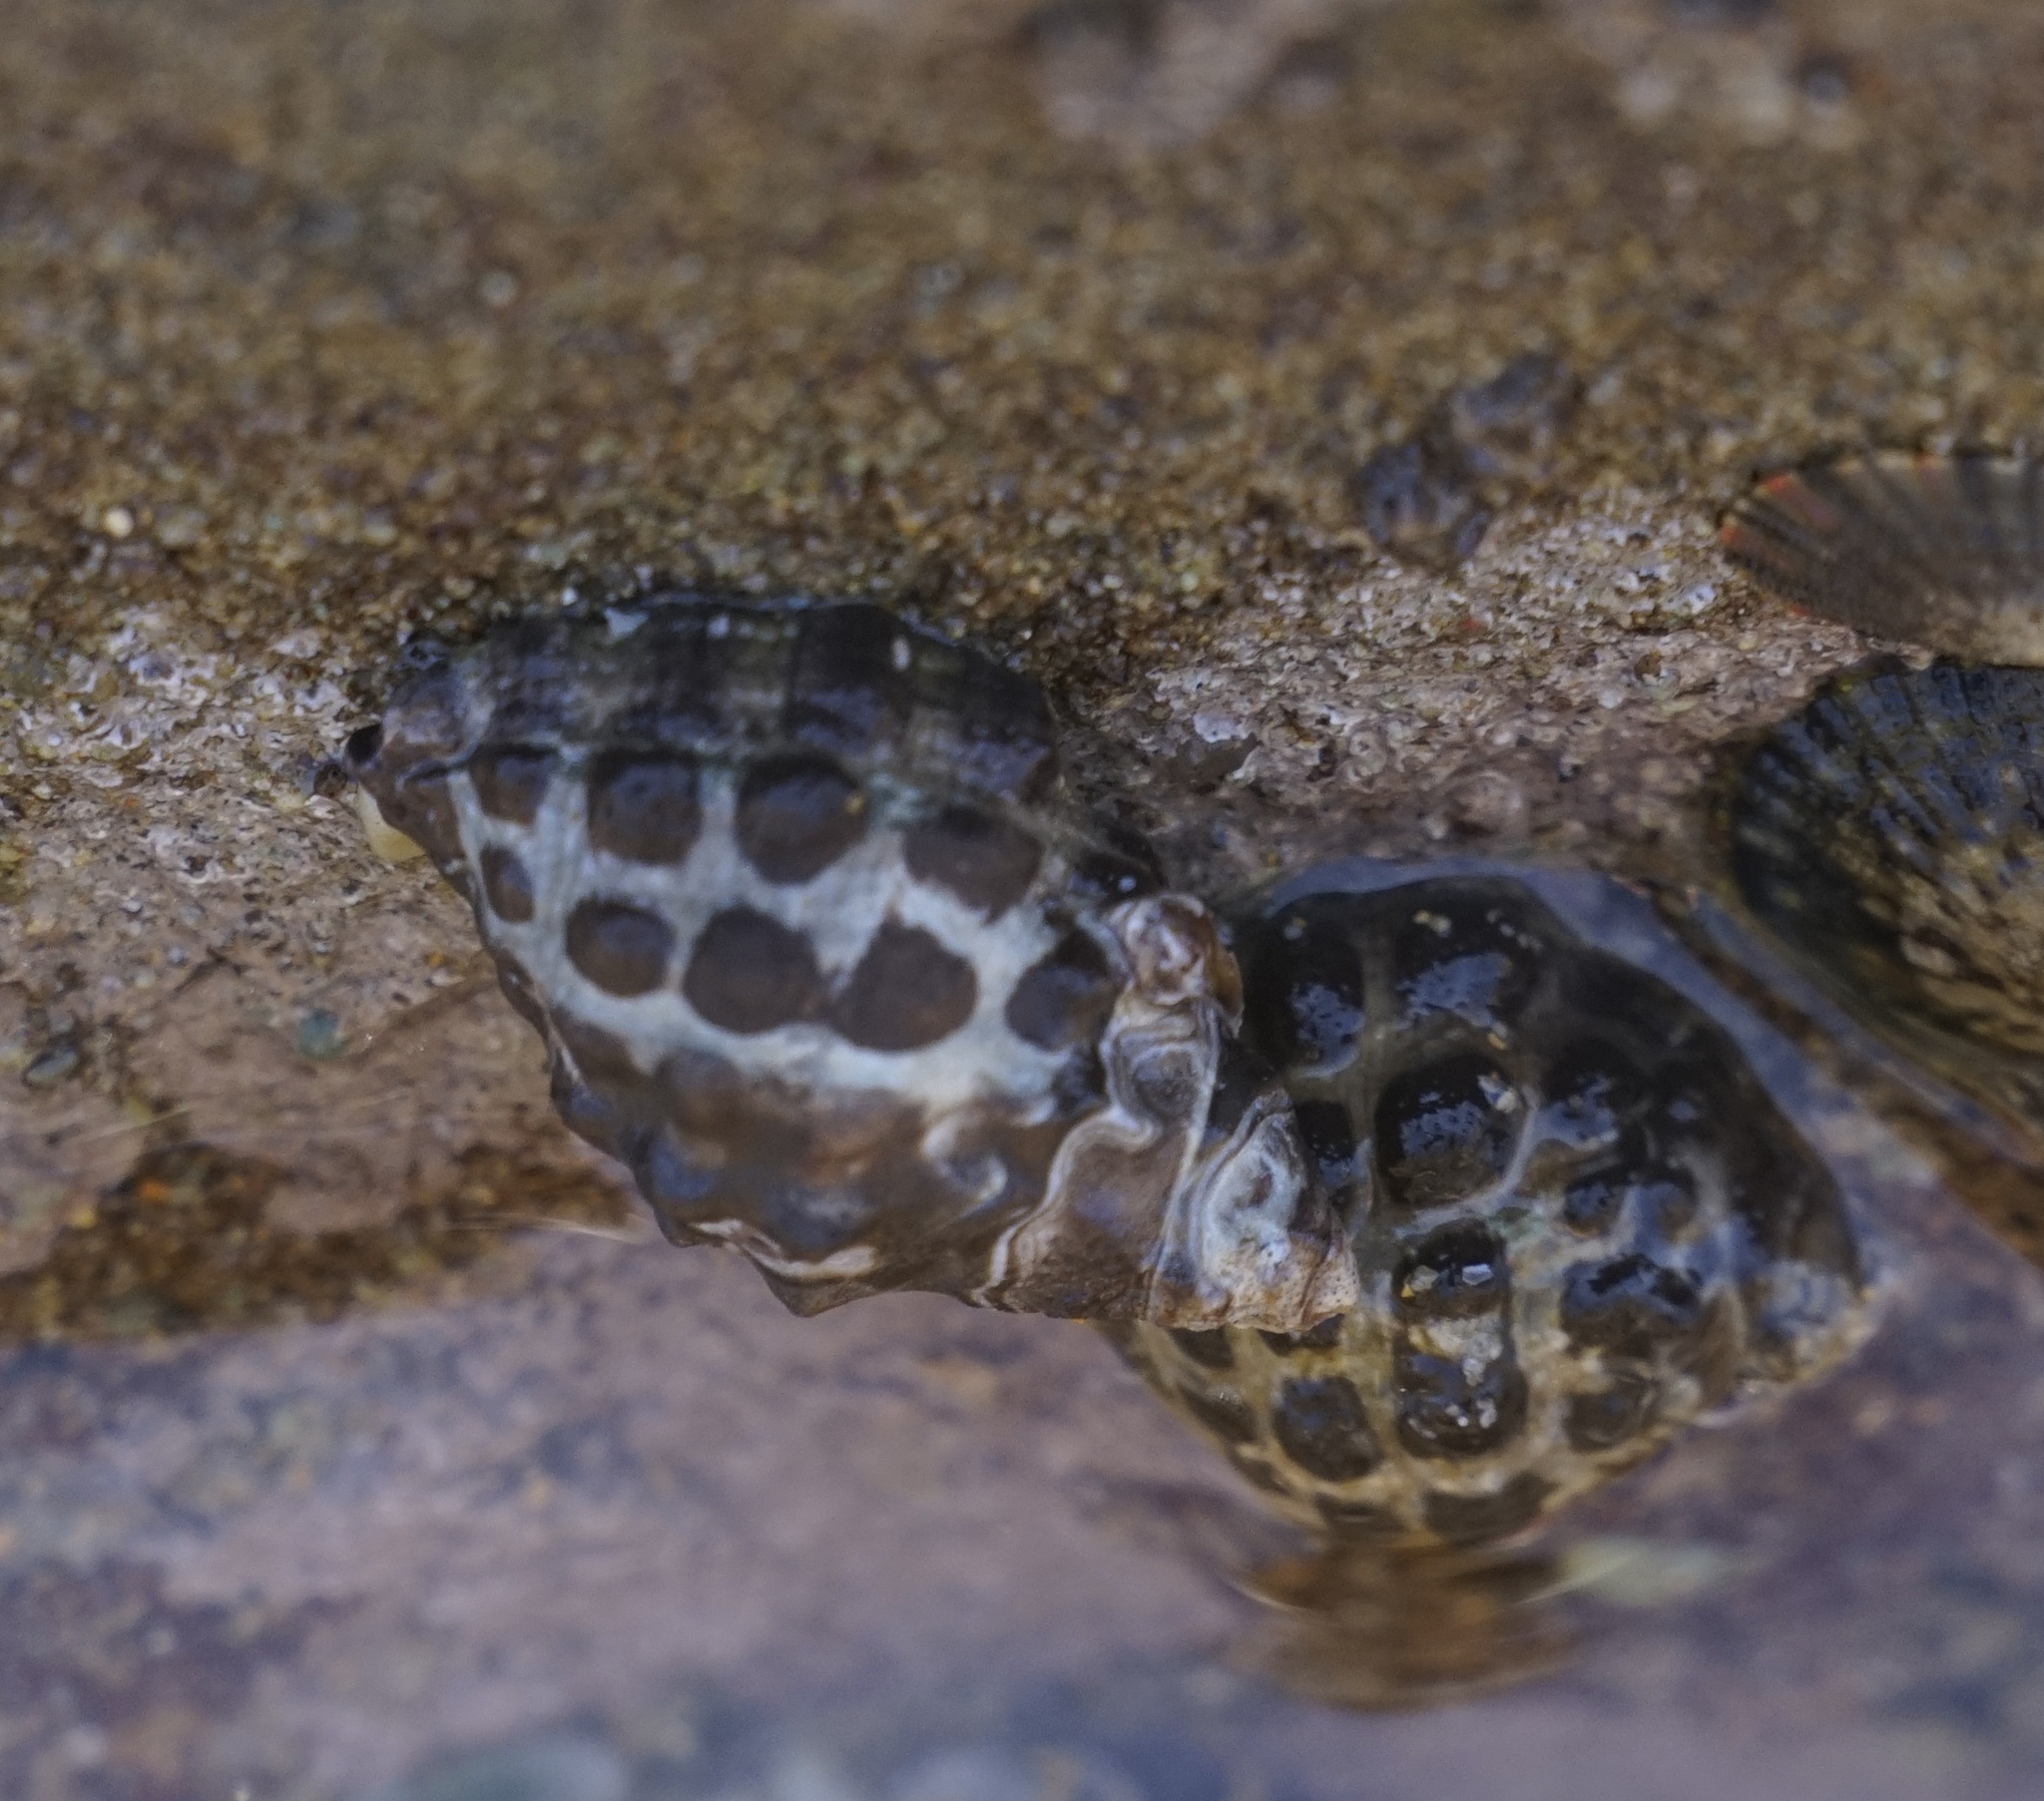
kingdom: Animalia
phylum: Mollusca
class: Gastropoda
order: Neogastropoda
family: Muricidae
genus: Tenguella
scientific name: Tenguella marginalba
